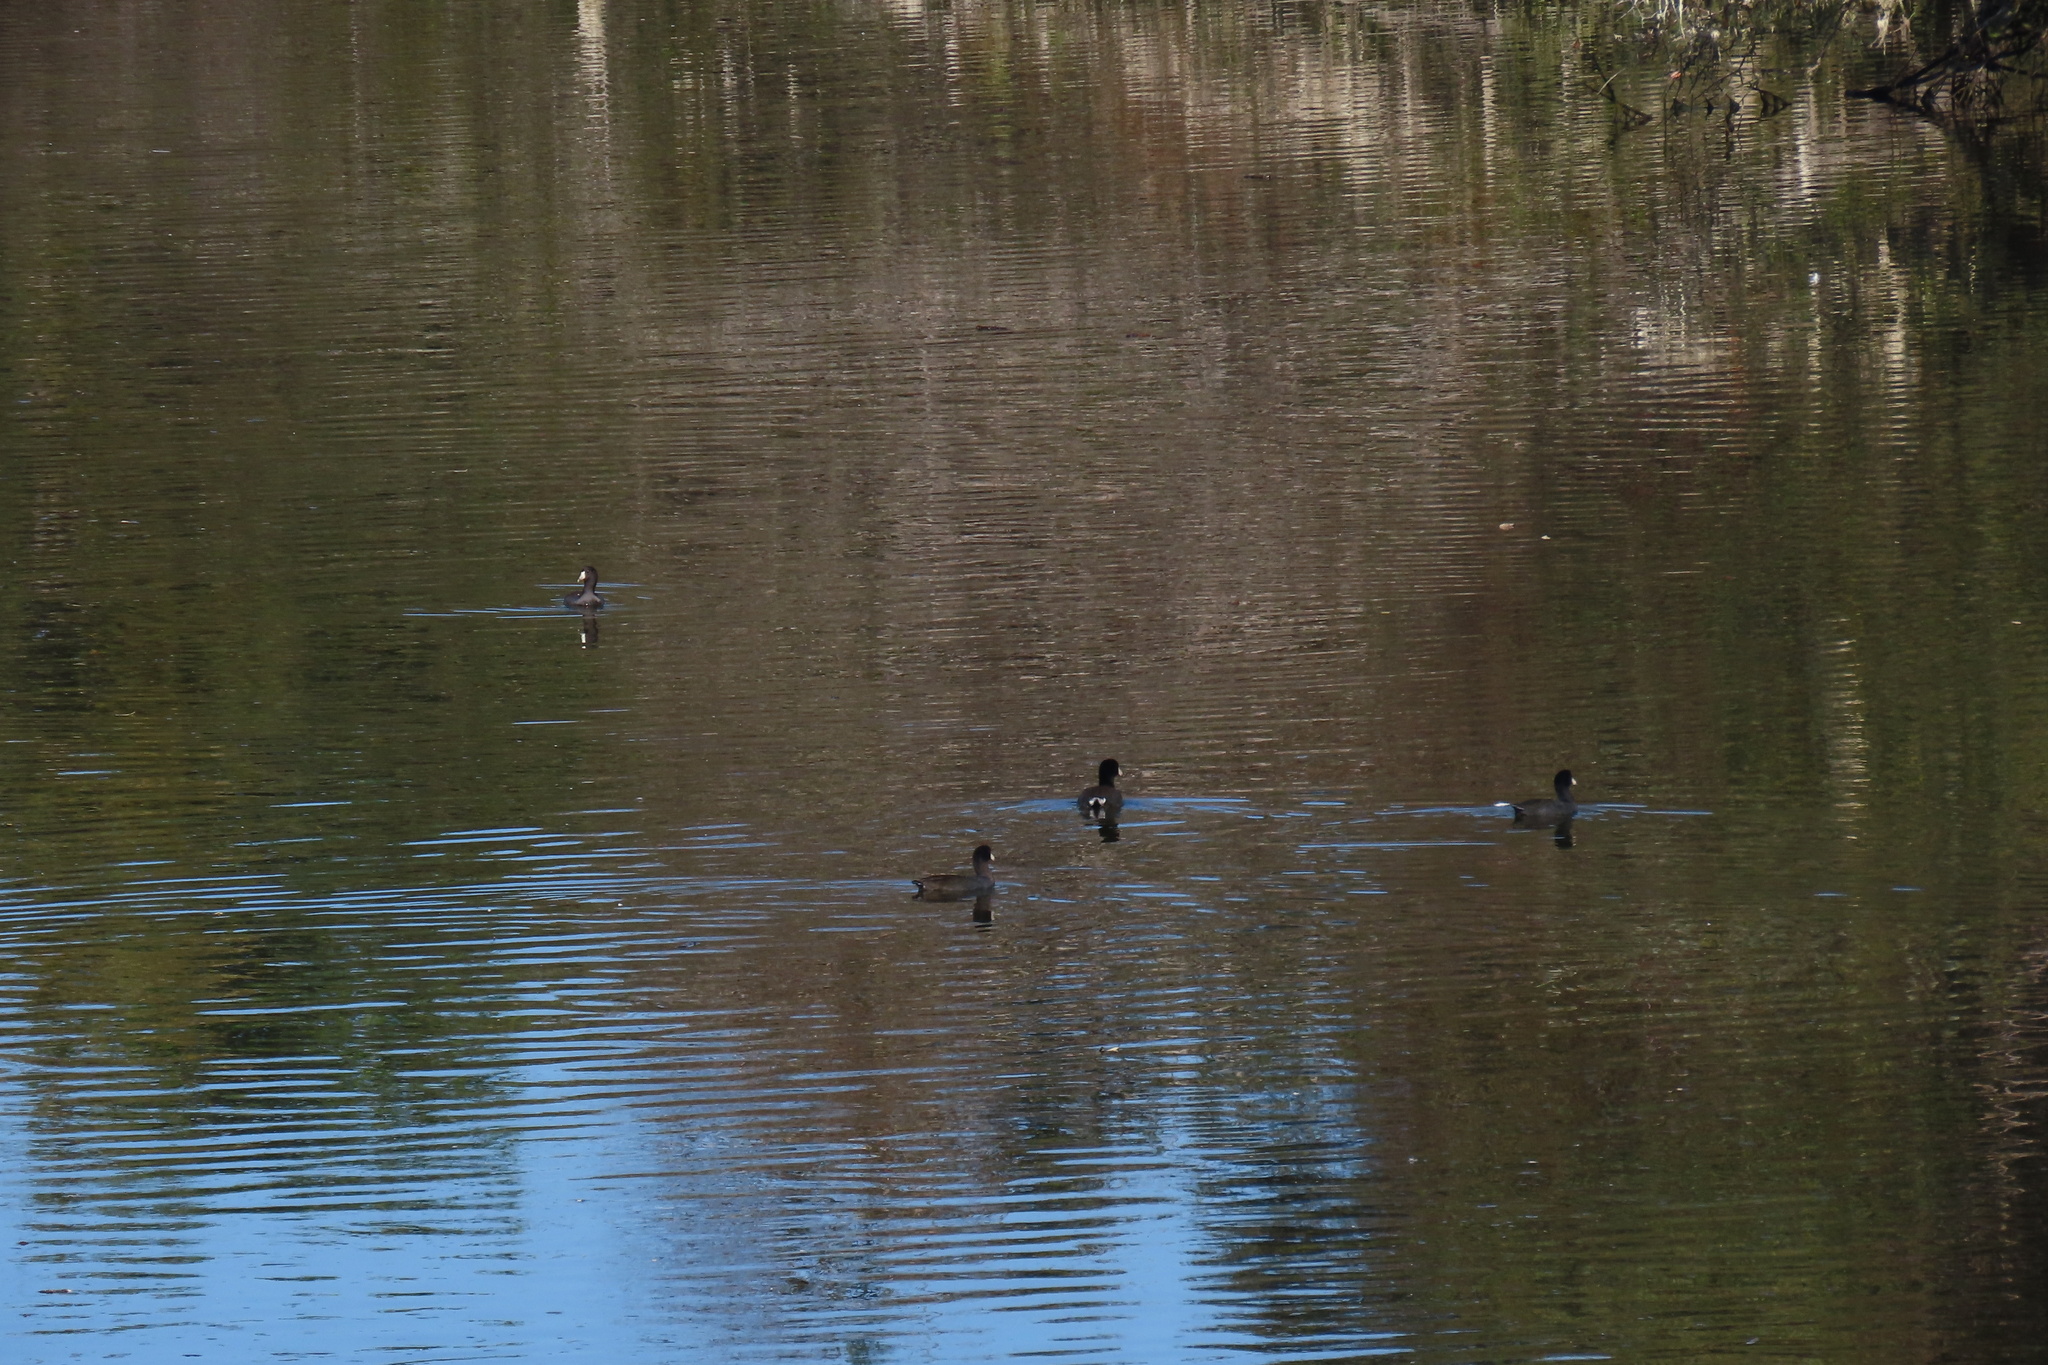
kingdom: Animalia
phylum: Chordata
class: Aves
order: Gruiformes
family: Rallidae
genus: Fulica
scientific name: Fulica americana
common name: American coot
